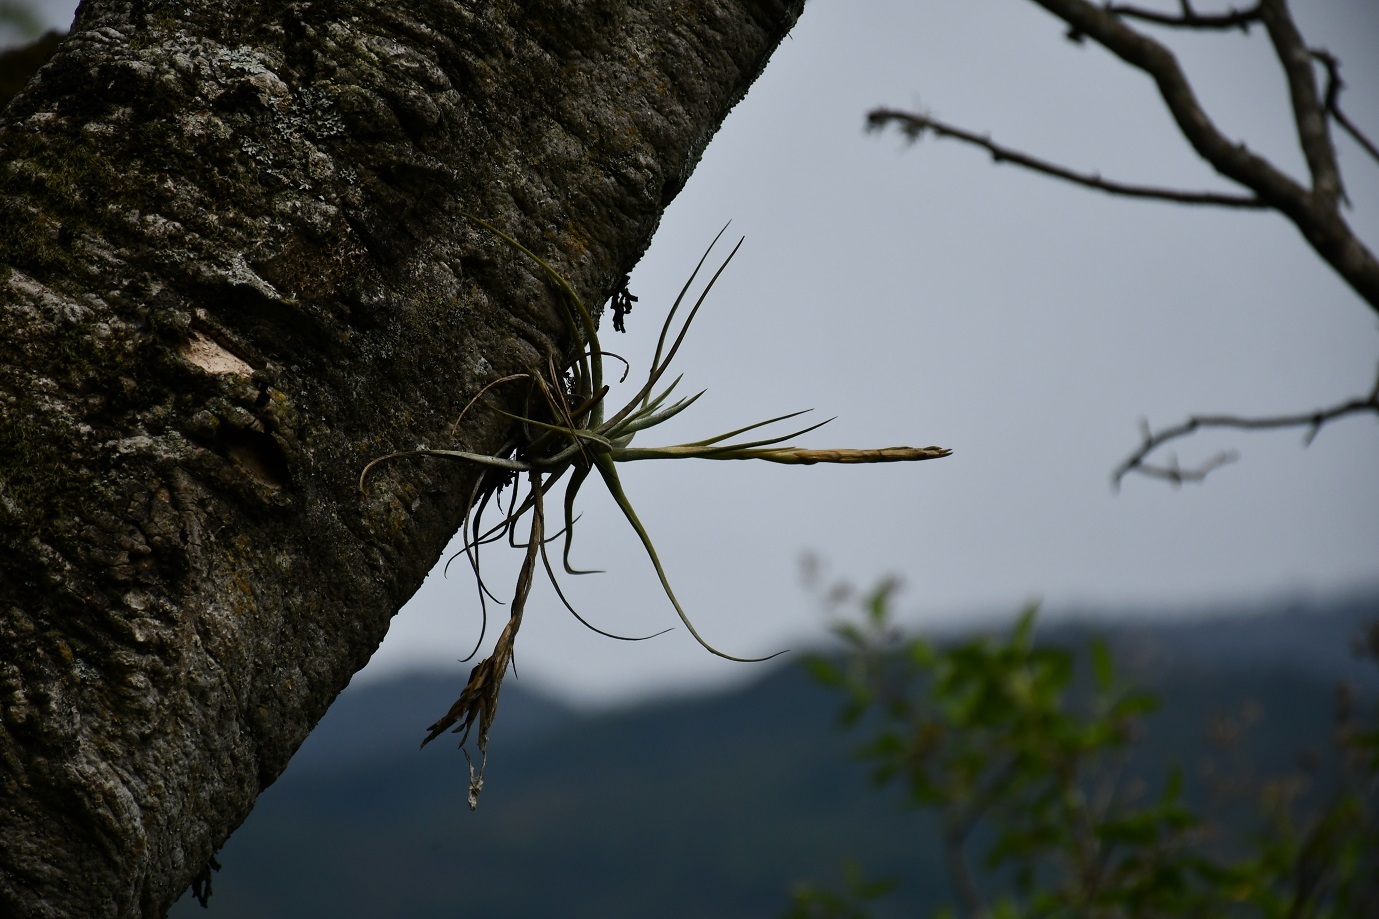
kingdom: Plantae
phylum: Tracheophyta
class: Liliopsida
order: Poales
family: Bromeliaceae
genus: Tillandsia
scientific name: Tillandsia balbisiana
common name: Northern needleleaf
